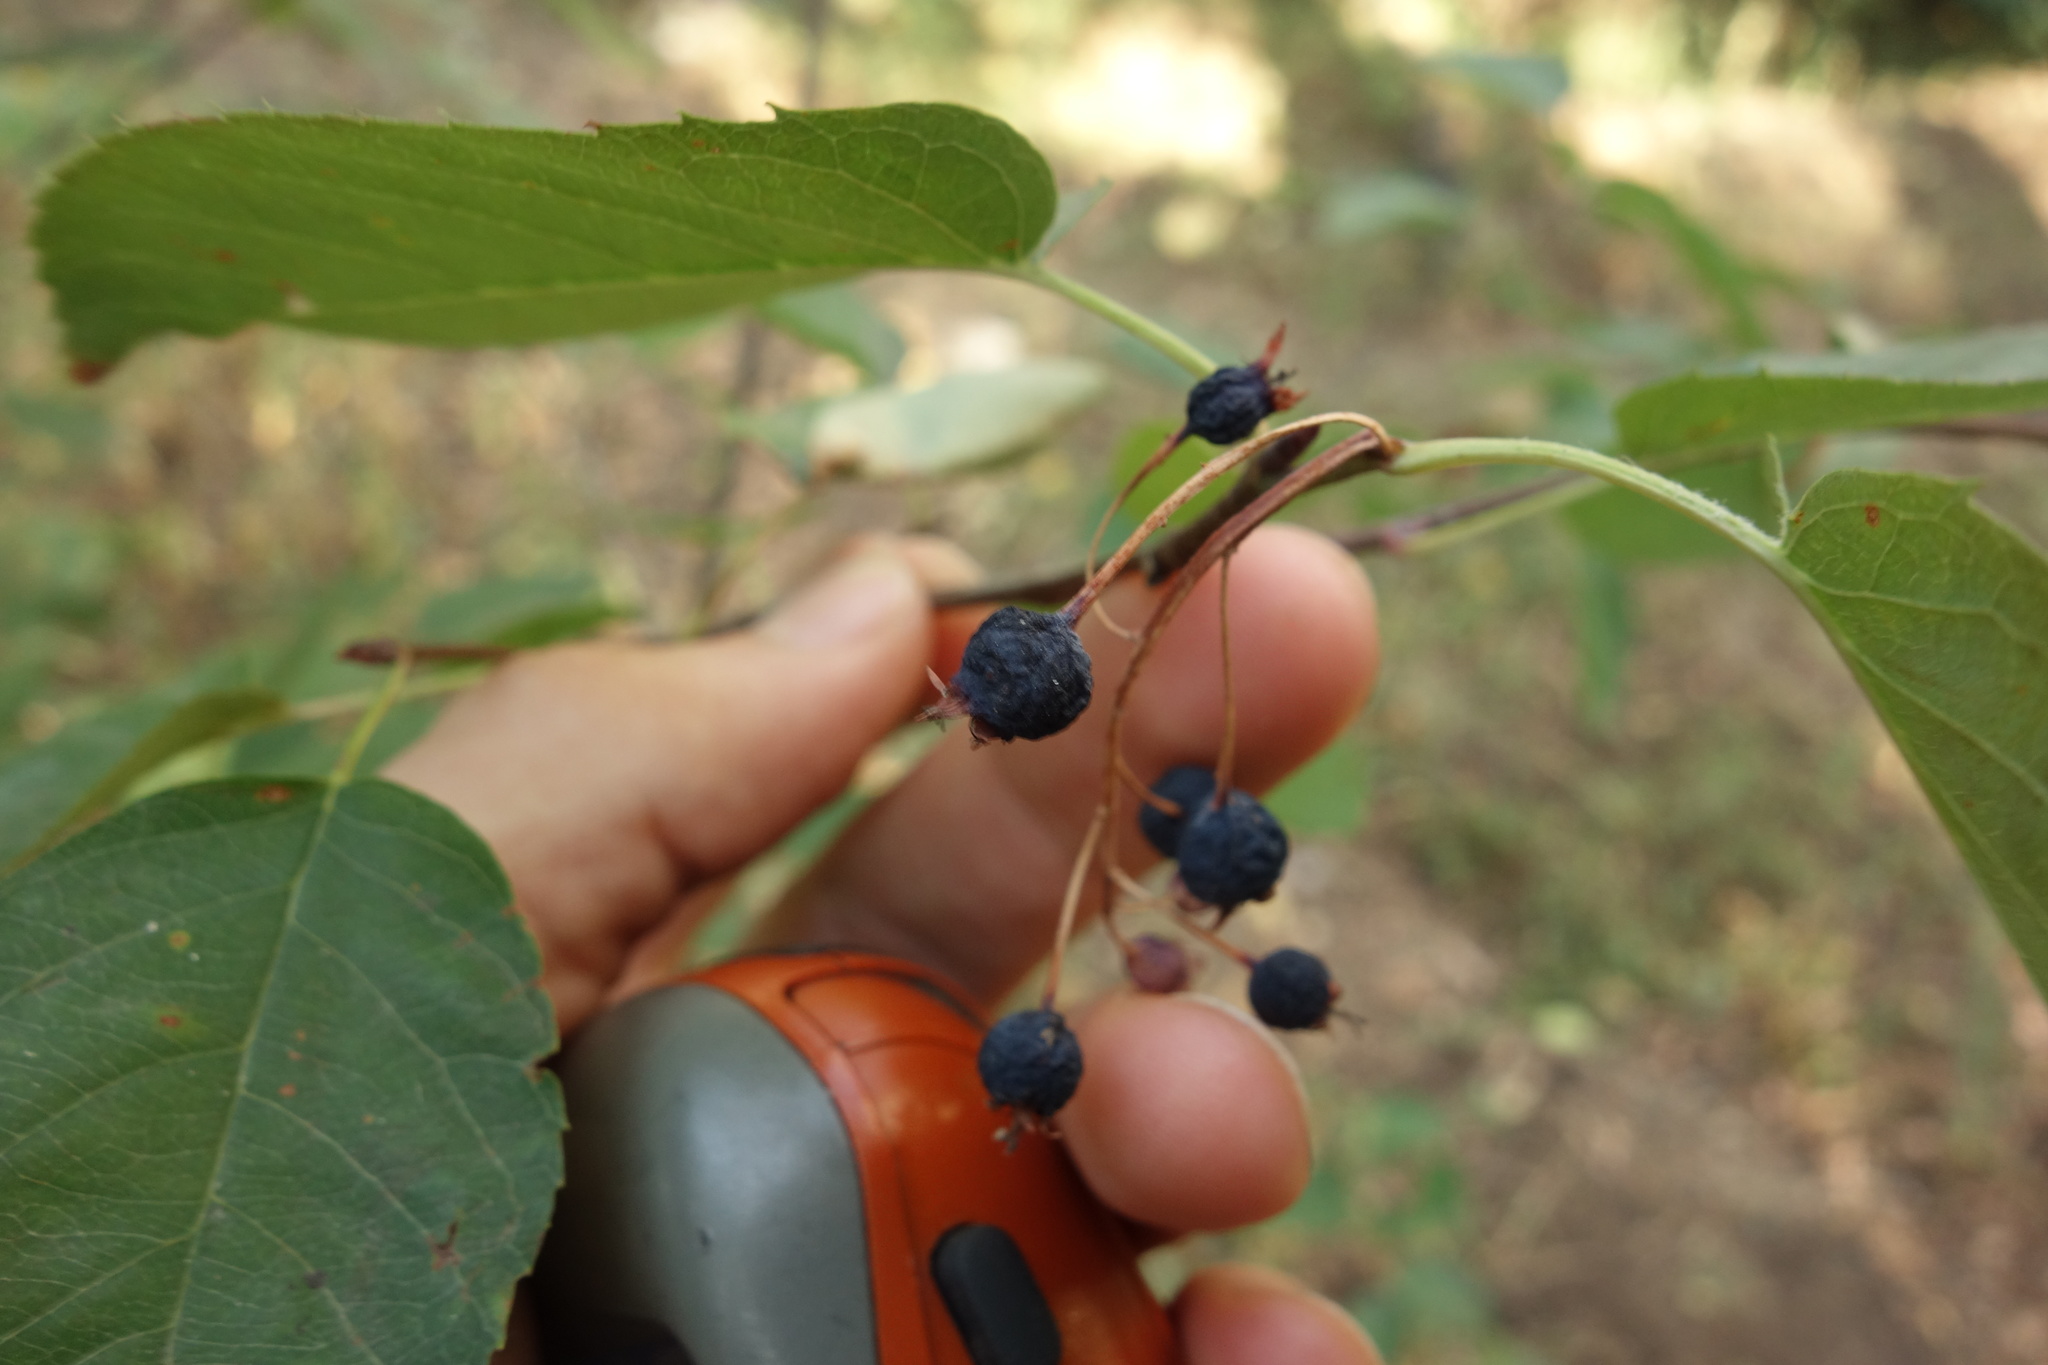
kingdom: Plantae
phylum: Tracheophyta
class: Magnoliopsida
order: Rosales
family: Rosaceae
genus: Amelanchier
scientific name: Amelanchier
